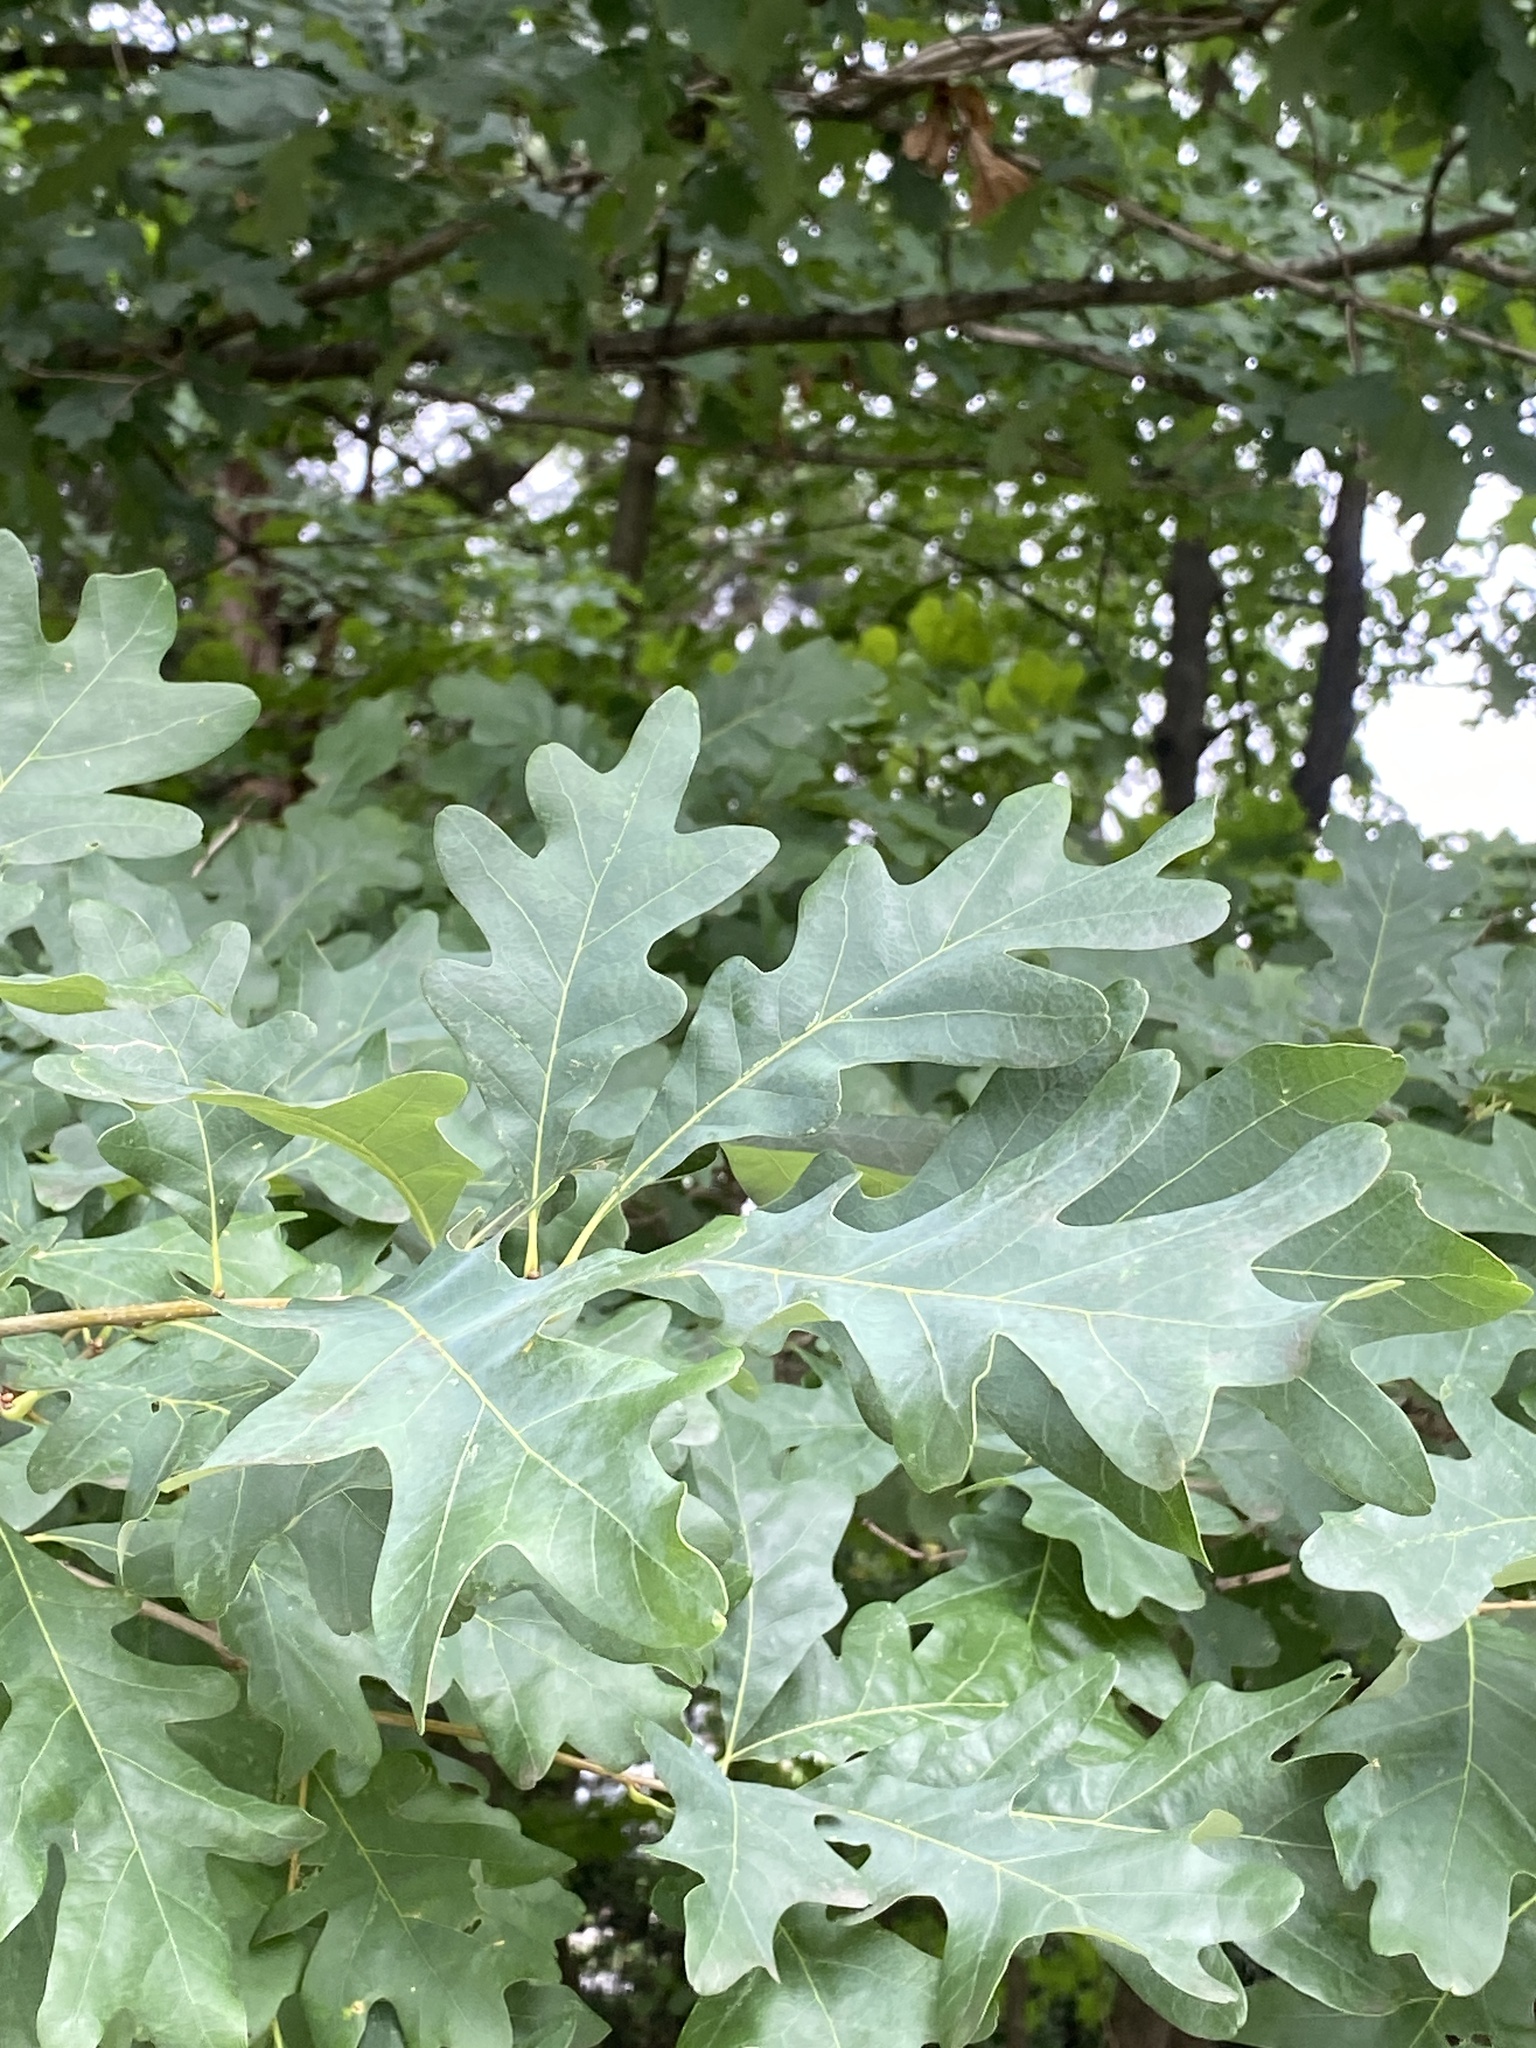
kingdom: Plantae
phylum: Tracheophyta
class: Magnoliopsida
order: Fagales
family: Fagaceae
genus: Quercus
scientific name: Quercus alba
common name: White oak
